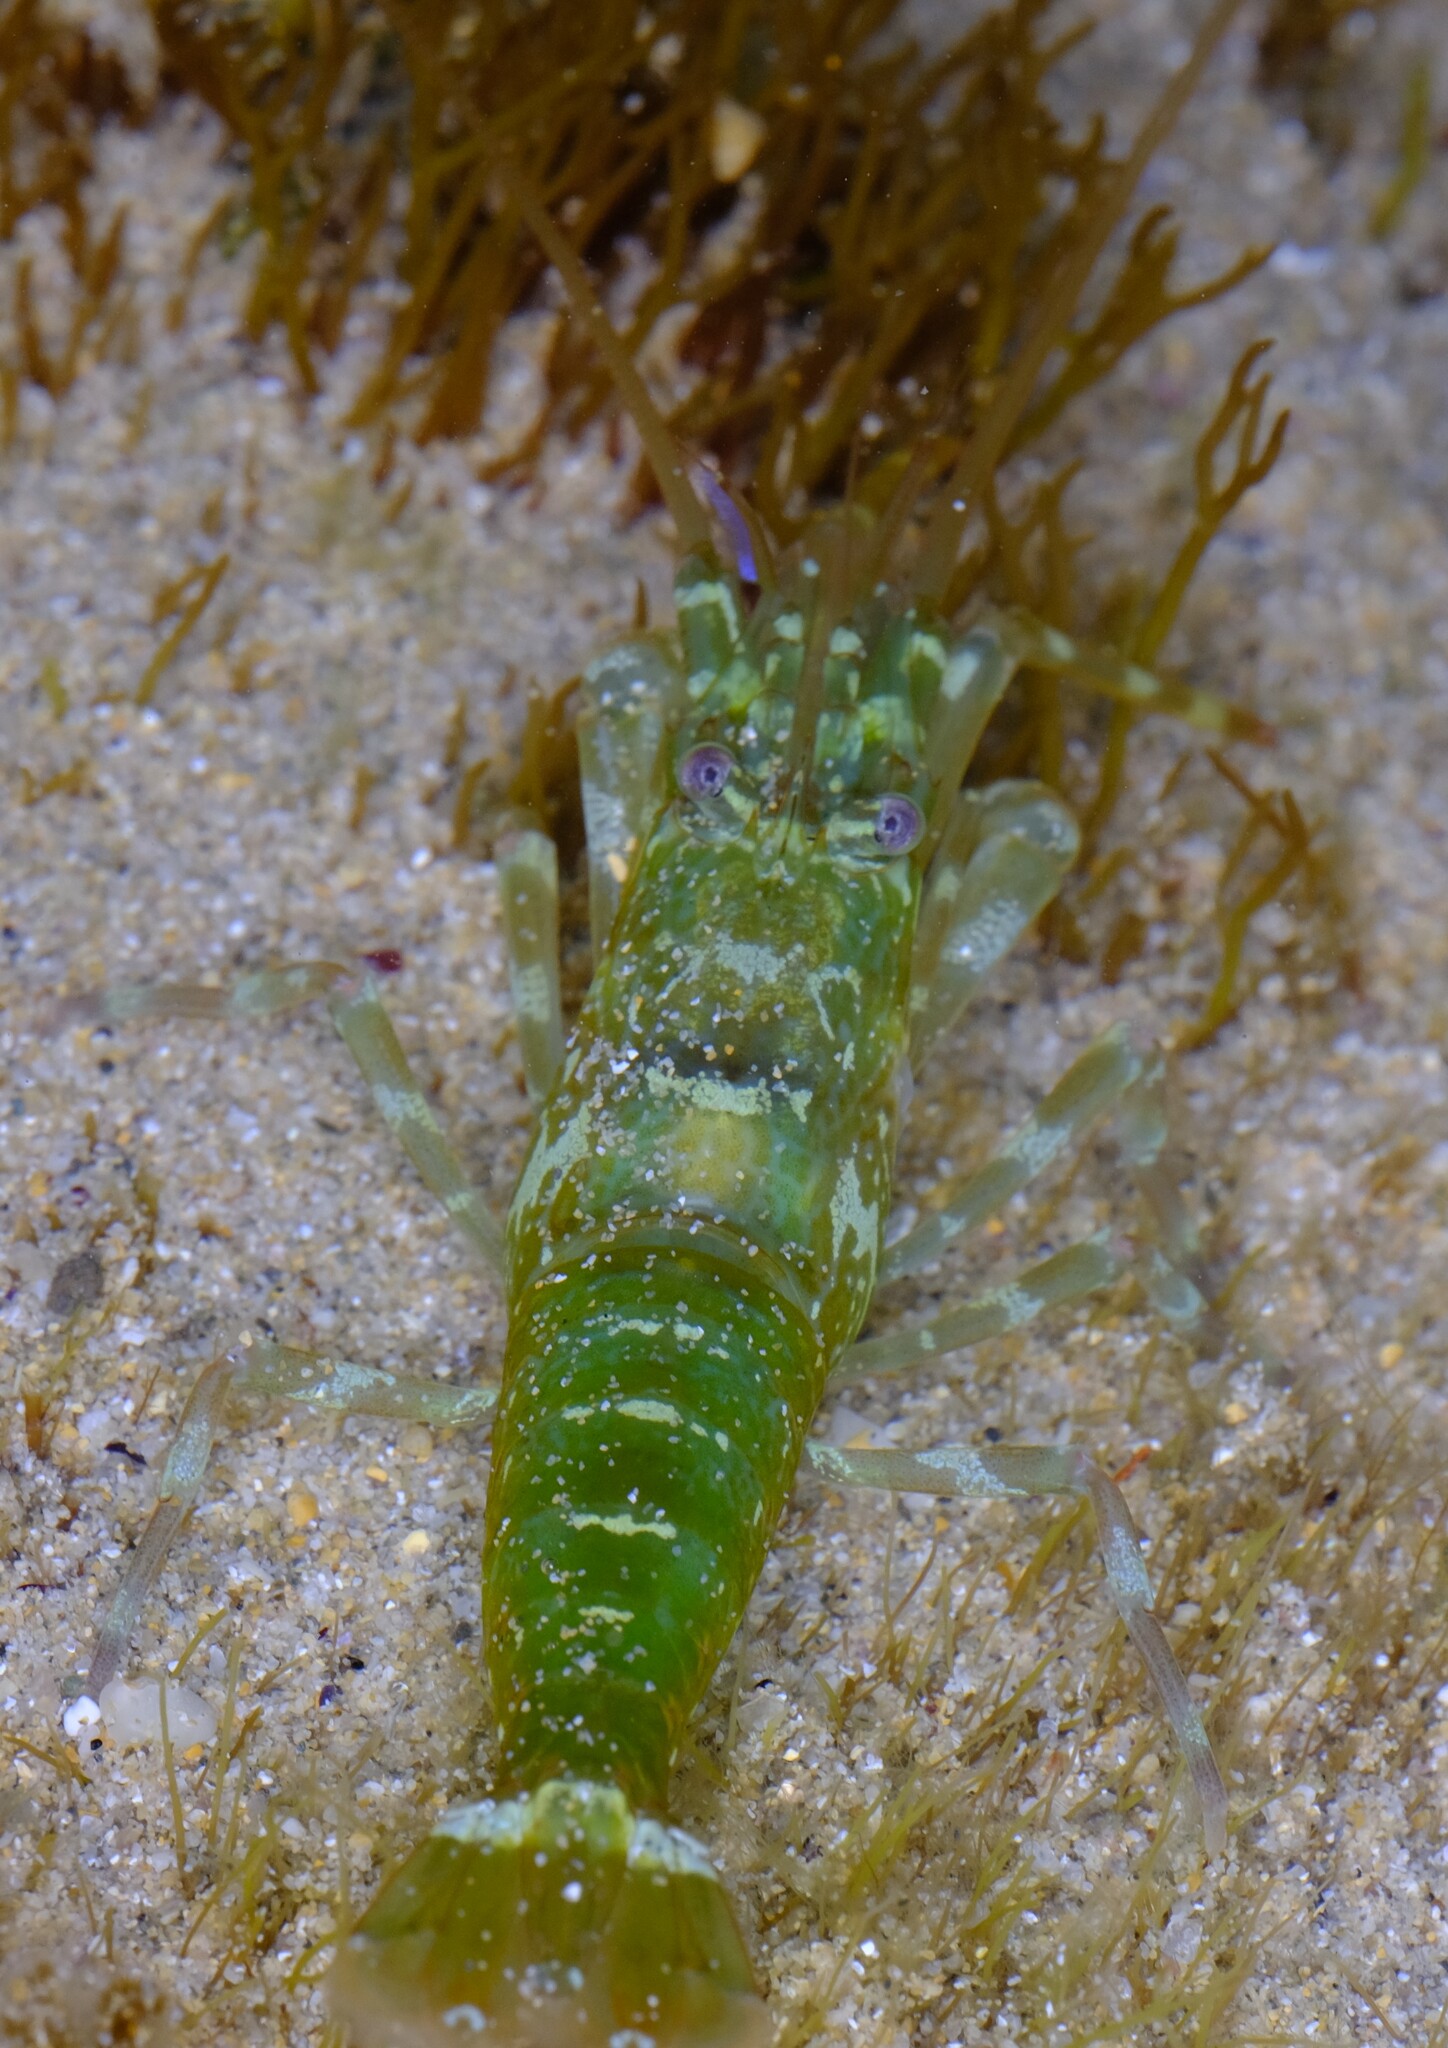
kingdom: Animalia
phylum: Arthropoda
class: Malacostraca
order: Decapoda
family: Hippolytidae
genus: Alope
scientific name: Alope orientalis
